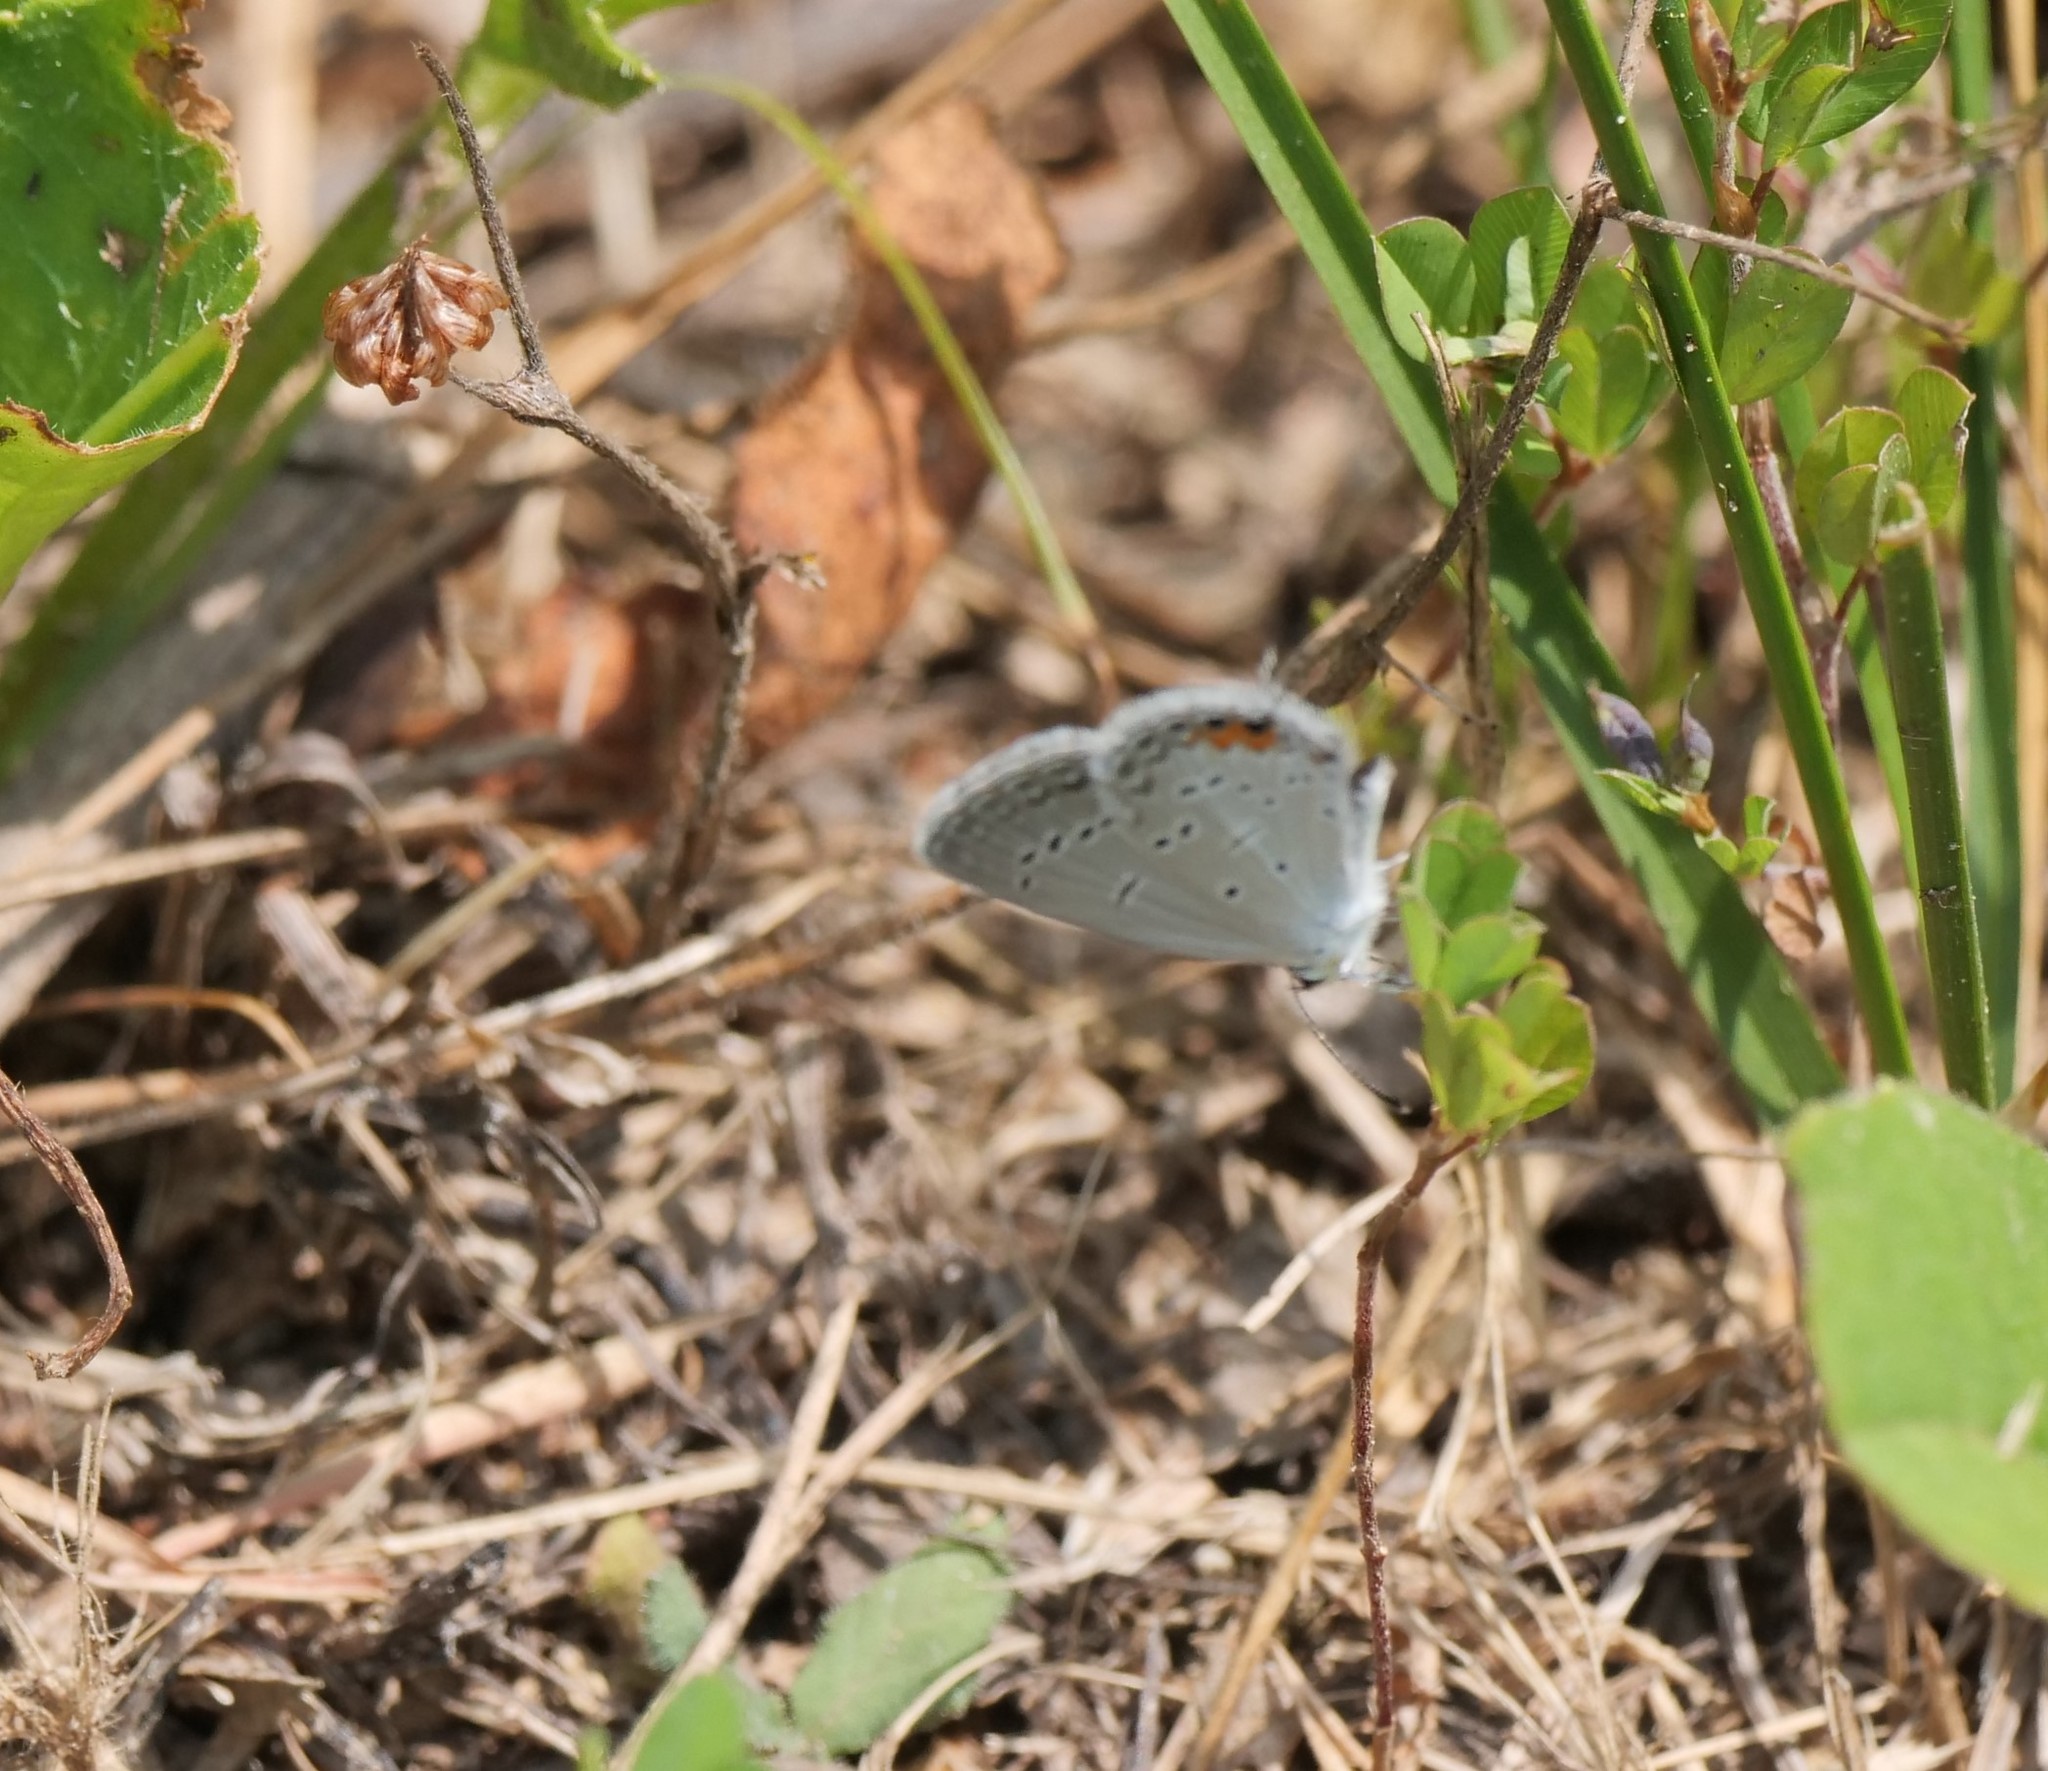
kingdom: Animalia
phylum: Arthropoda
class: Insecta
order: Lepidoptera
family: Lycaenidae
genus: Elkalyce
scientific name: Elkalyce comyntas
